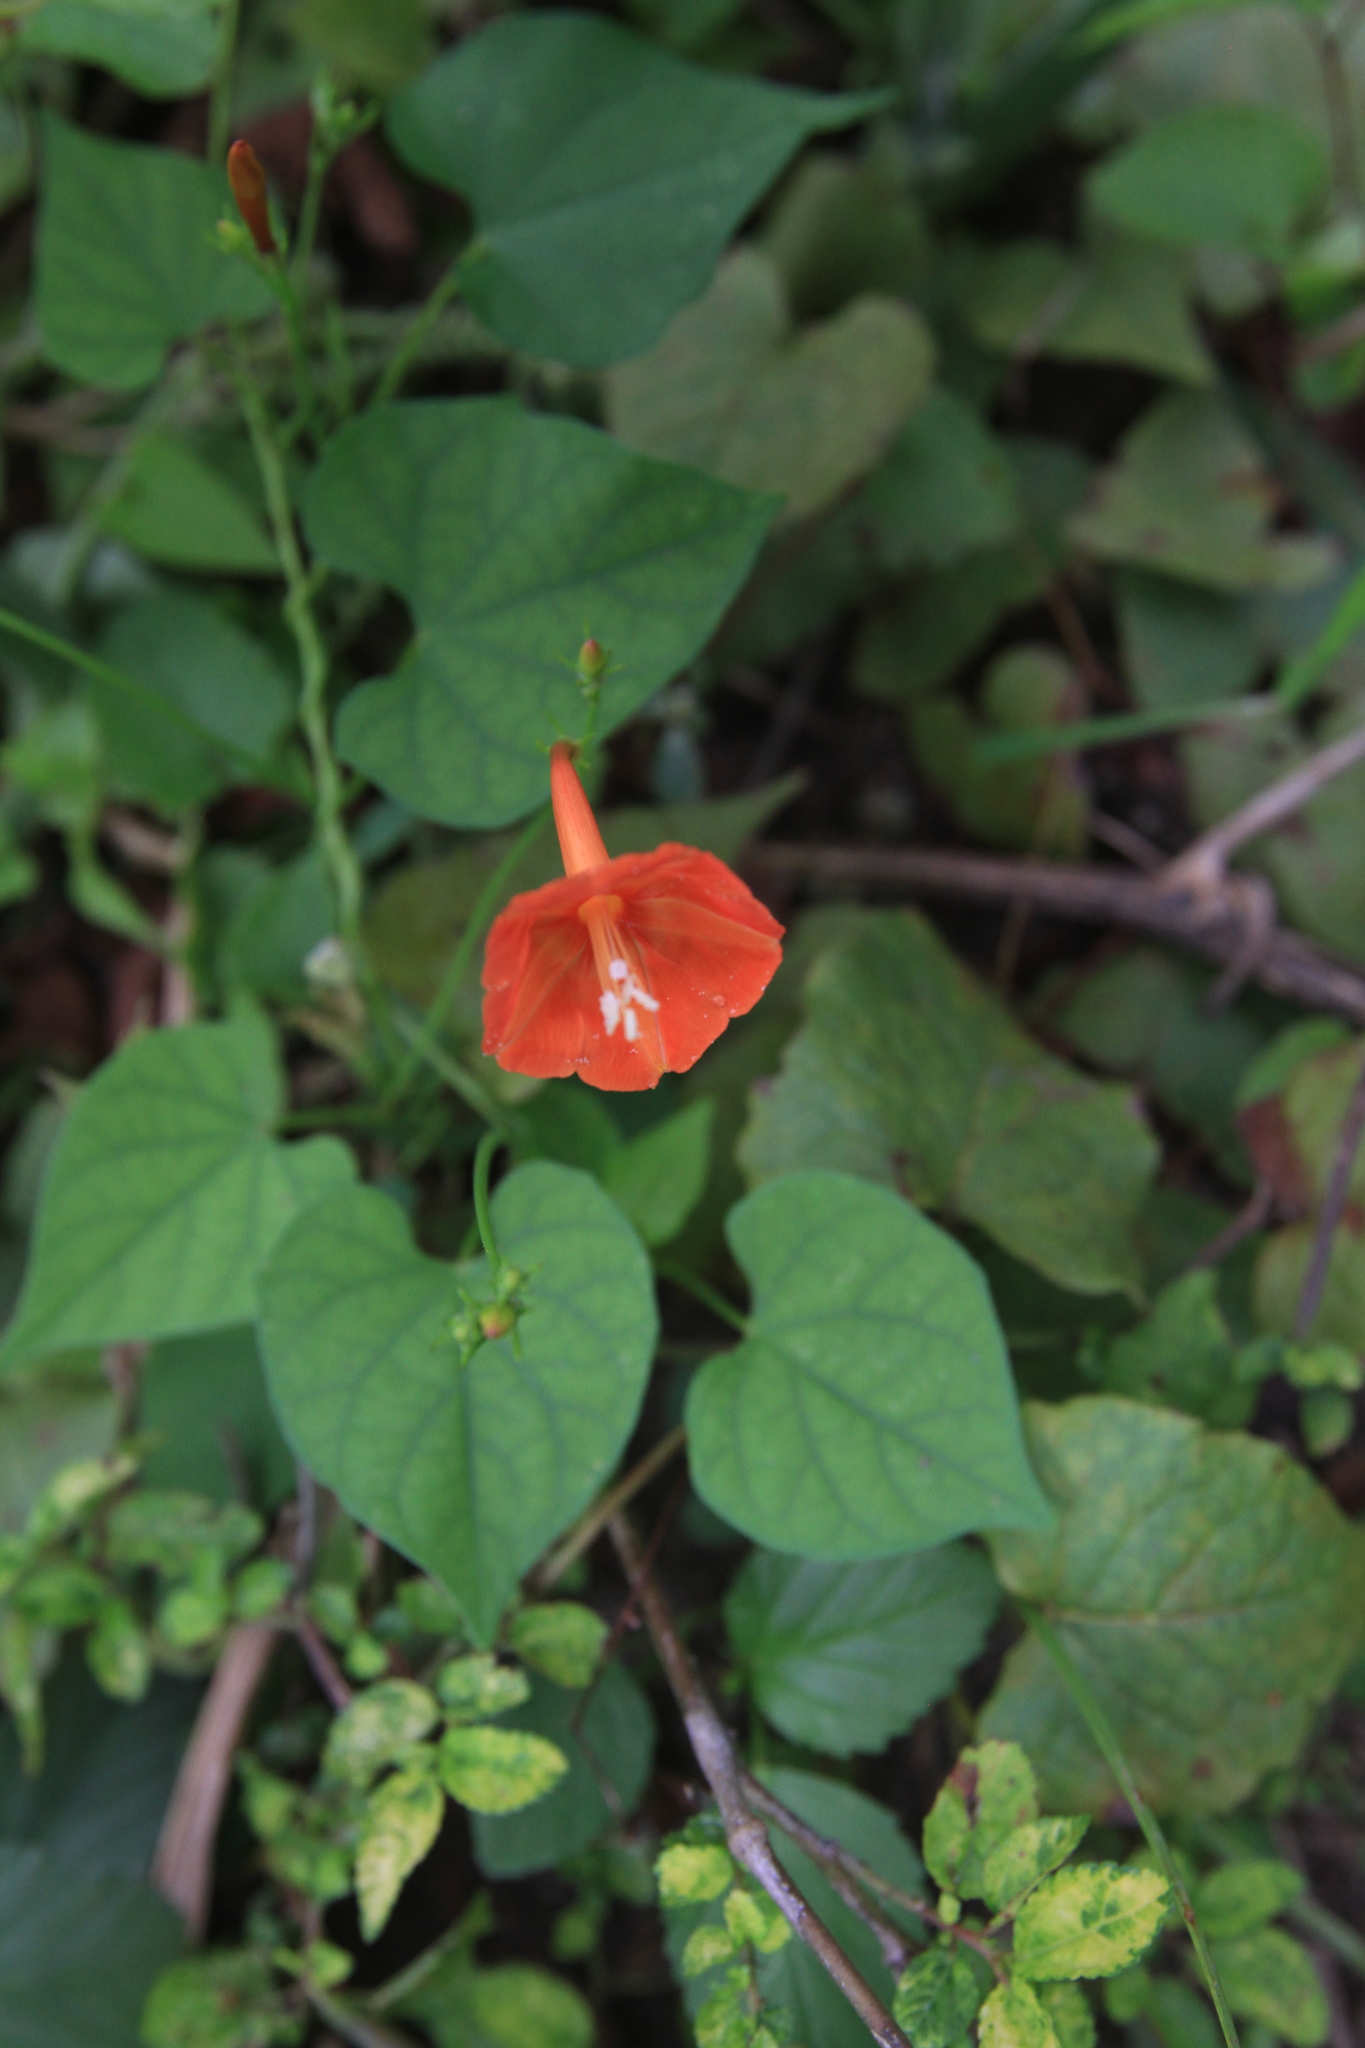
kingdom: Plantae
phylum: Tracheophyta
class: Magnoliopsida
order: Solanales
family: Convolvulaceae
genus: Ipomoea
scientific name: Ipomoea hederifolia
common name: Ivy-leaf morning-glory
